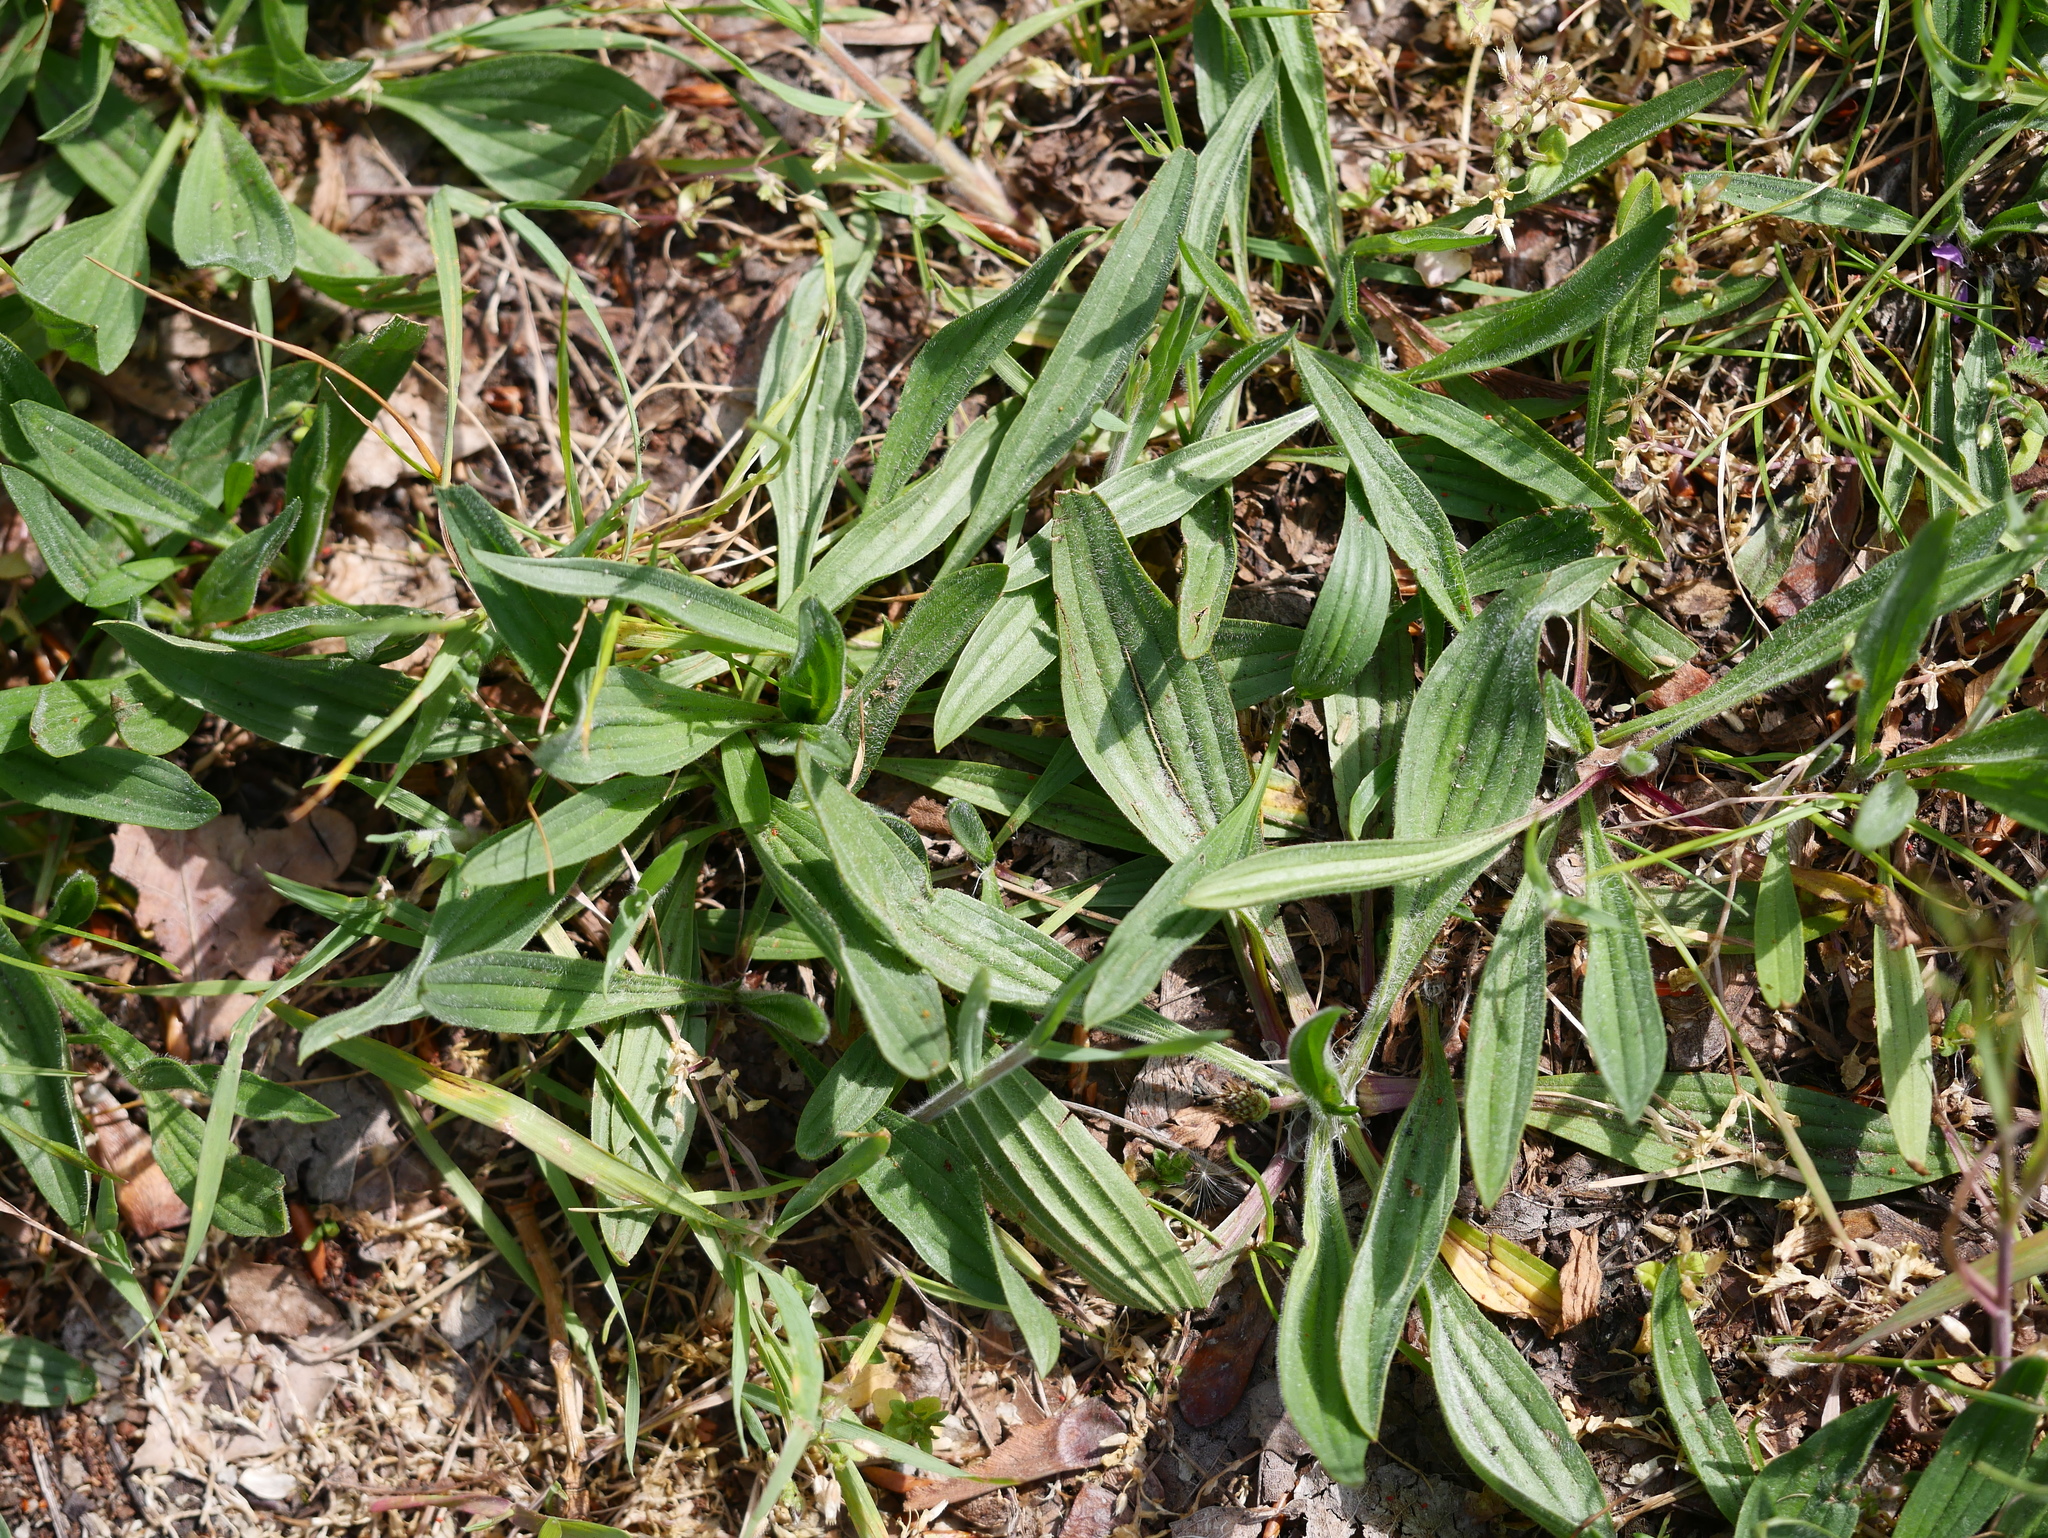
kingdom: Plantae
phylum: Tracheophyta
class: Magnoliopsida
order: Lamiales
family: Plantaginaceae
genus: Plantago
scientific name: Plantago lanceolata
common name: Ribwort plantain
